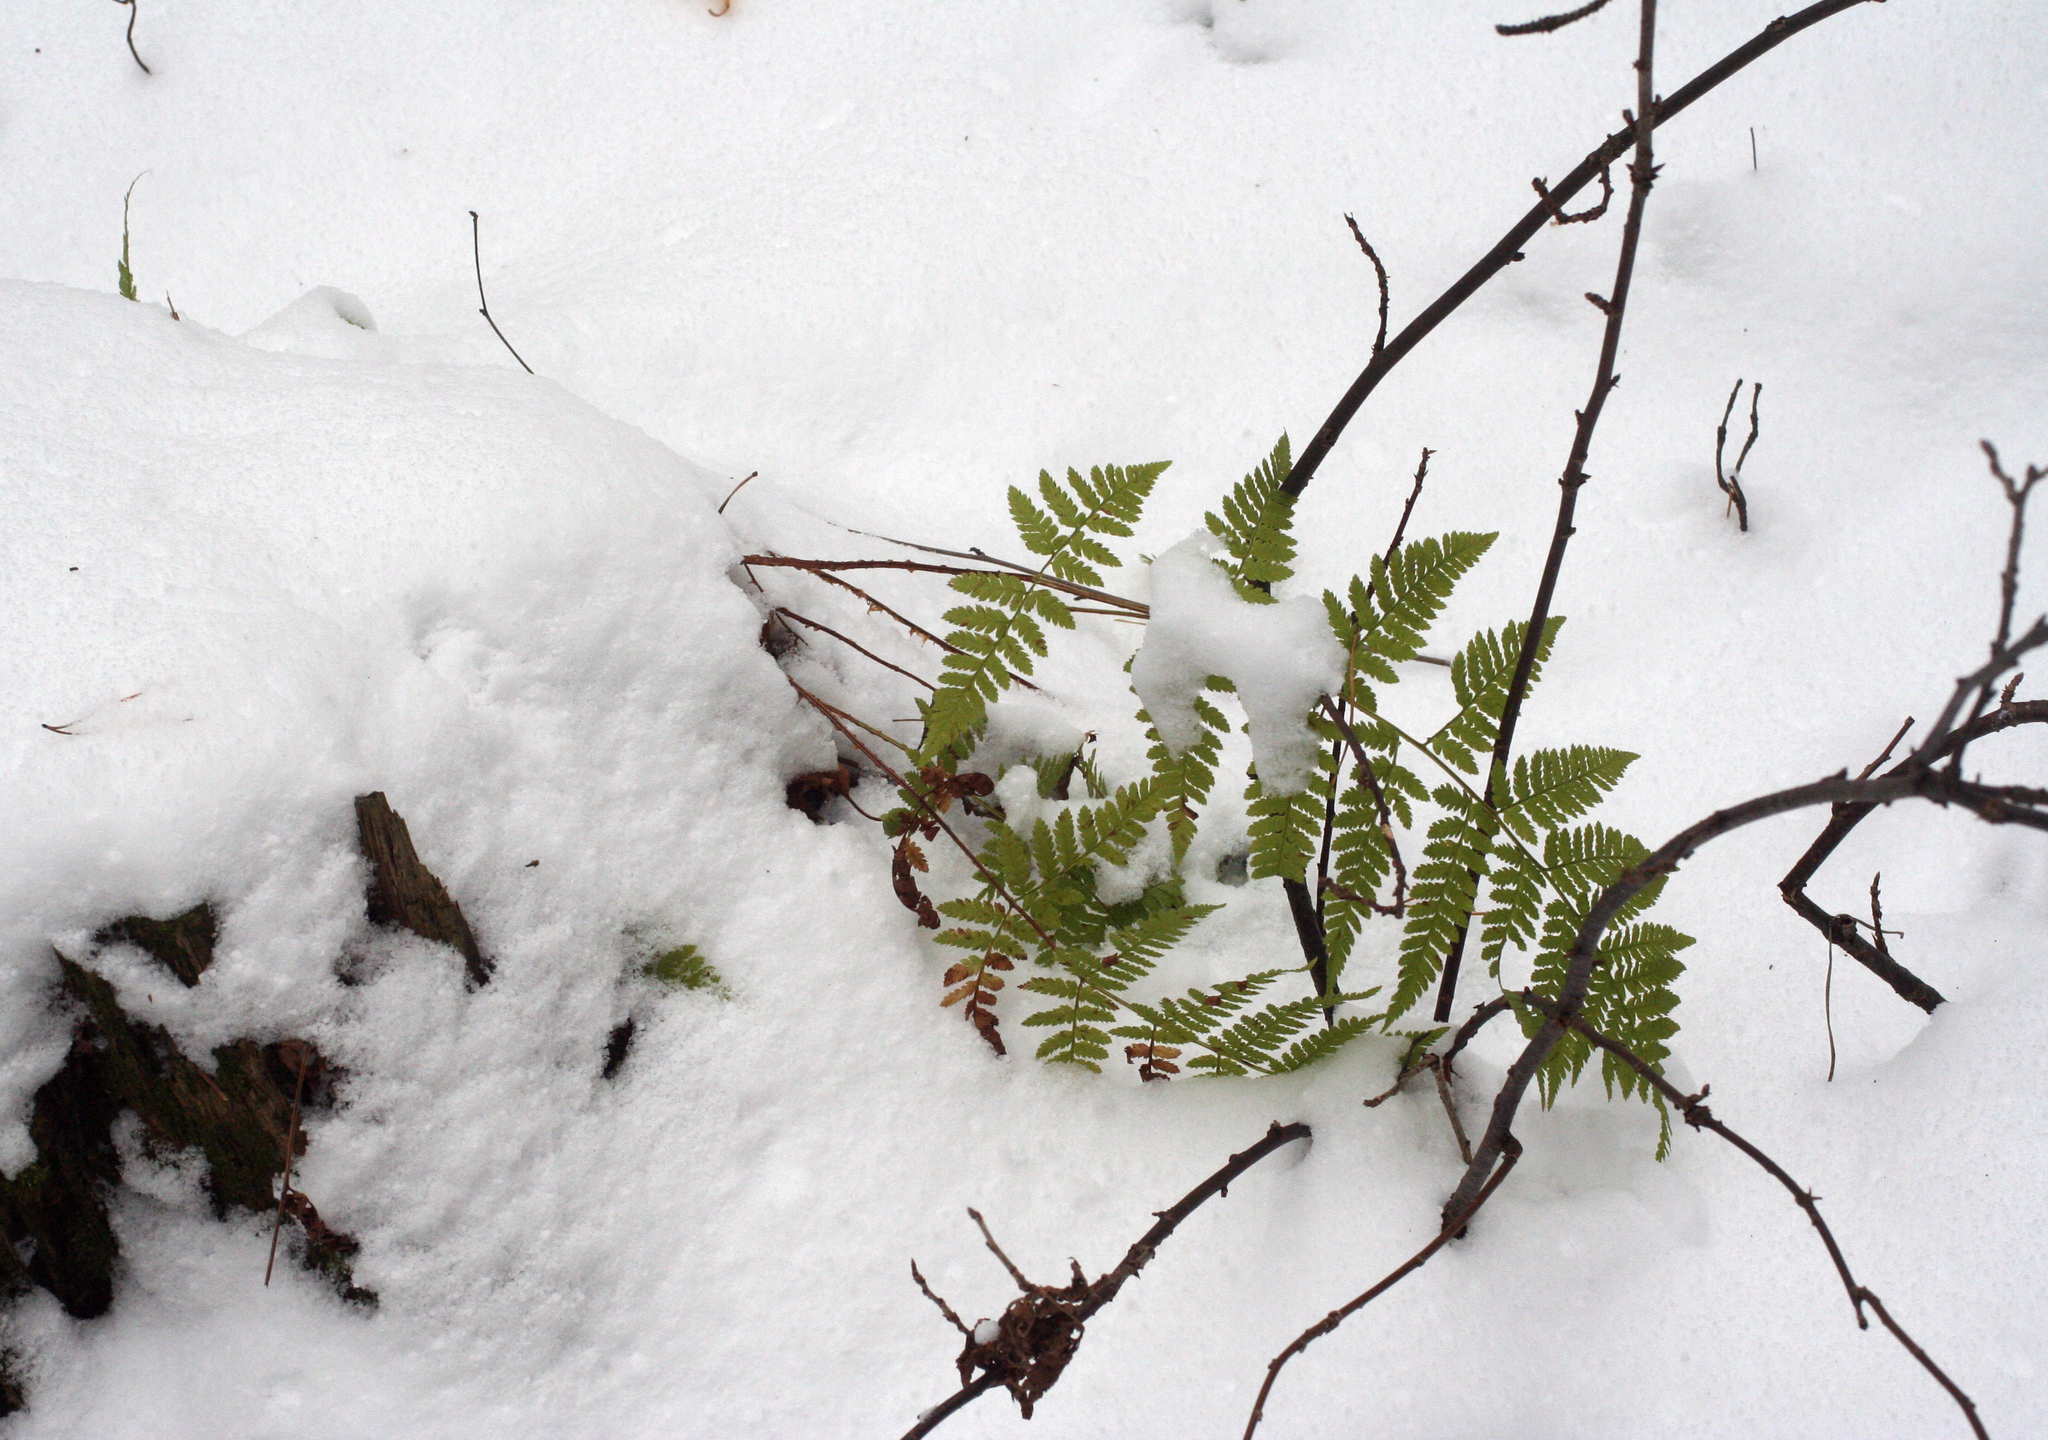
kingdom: Plantae
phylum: Tracheophyta
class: Polypodiopsida
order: Polypodiales
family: Dryopteridaceae
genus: Dryopteris
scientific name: Dryopteris carthusiana
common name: Narrow buckler-fern
